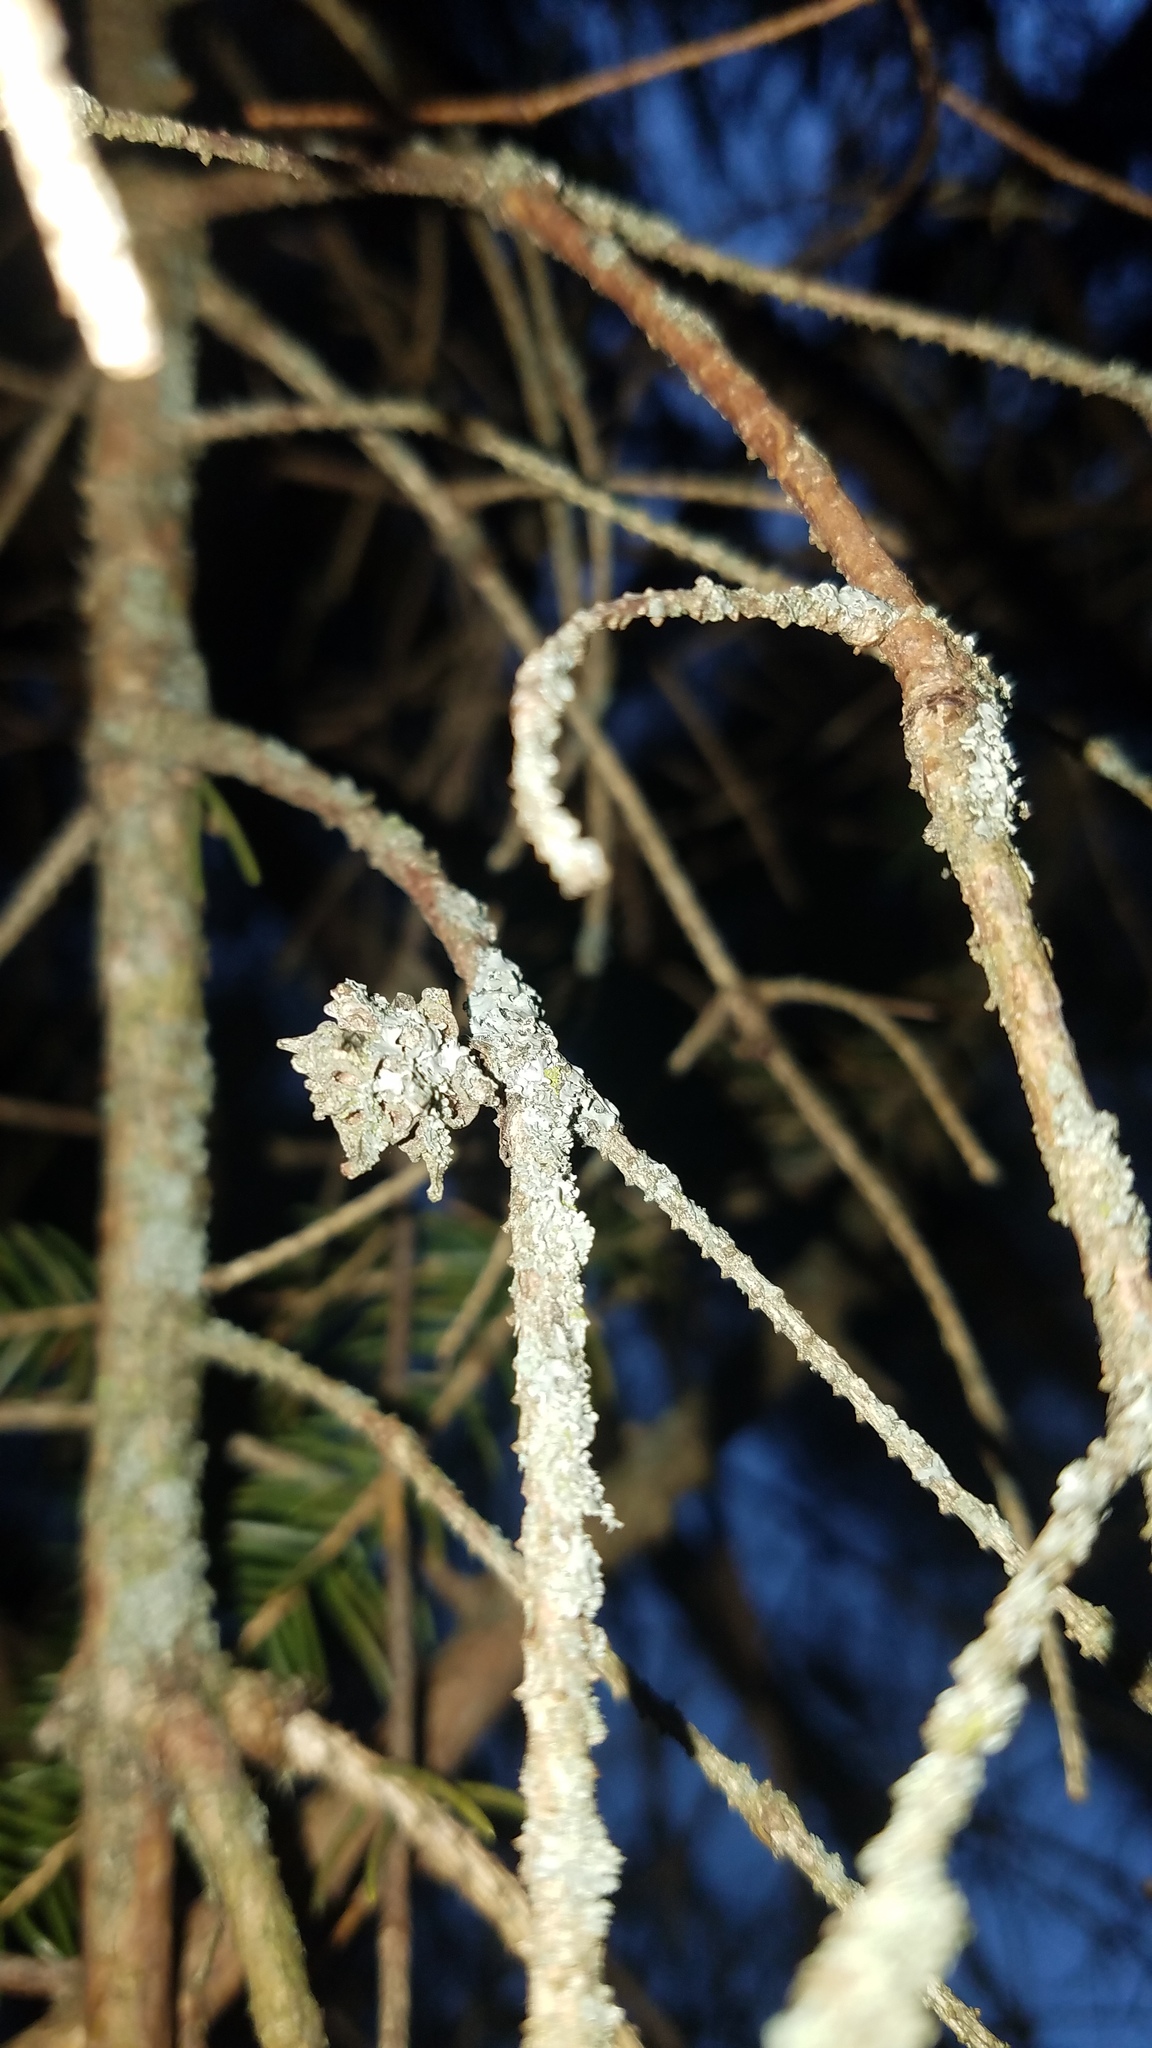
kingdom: Animalia
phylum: Arthropoda
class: Insecta
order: Hemiptera
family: Adelgidae
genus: Adelges
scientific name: Adelges abietis
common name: Eastern spruce gall adelgid
